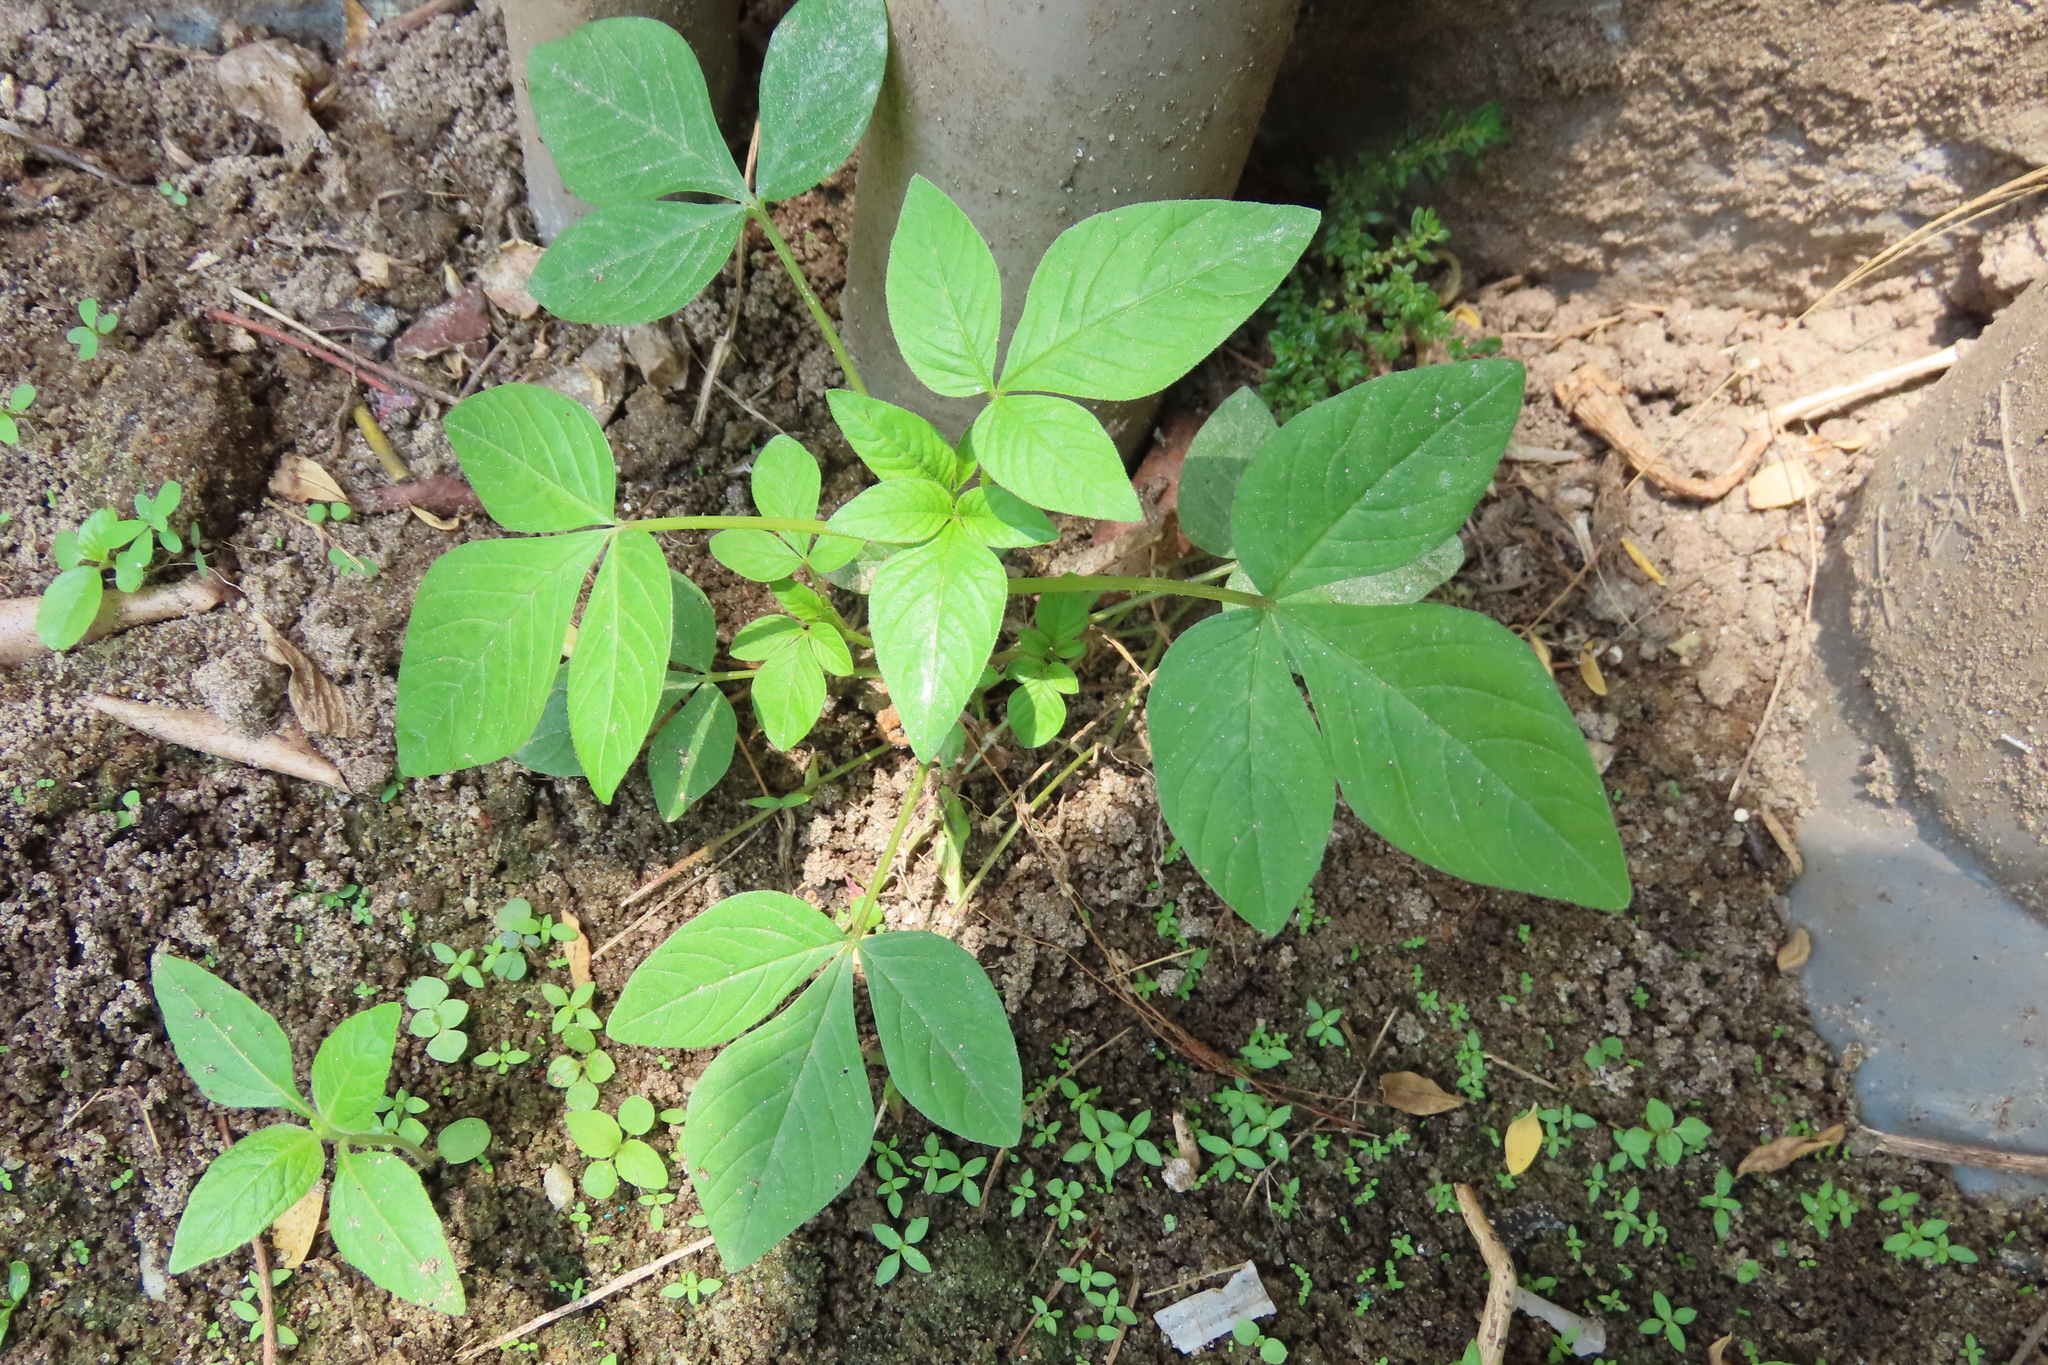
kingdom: Plantae
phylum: Tracheophyta
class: Magnoliopsida
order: Brassicales
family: Cleomaceae
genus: Sieruela
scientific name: Sieruela rutidosperma
